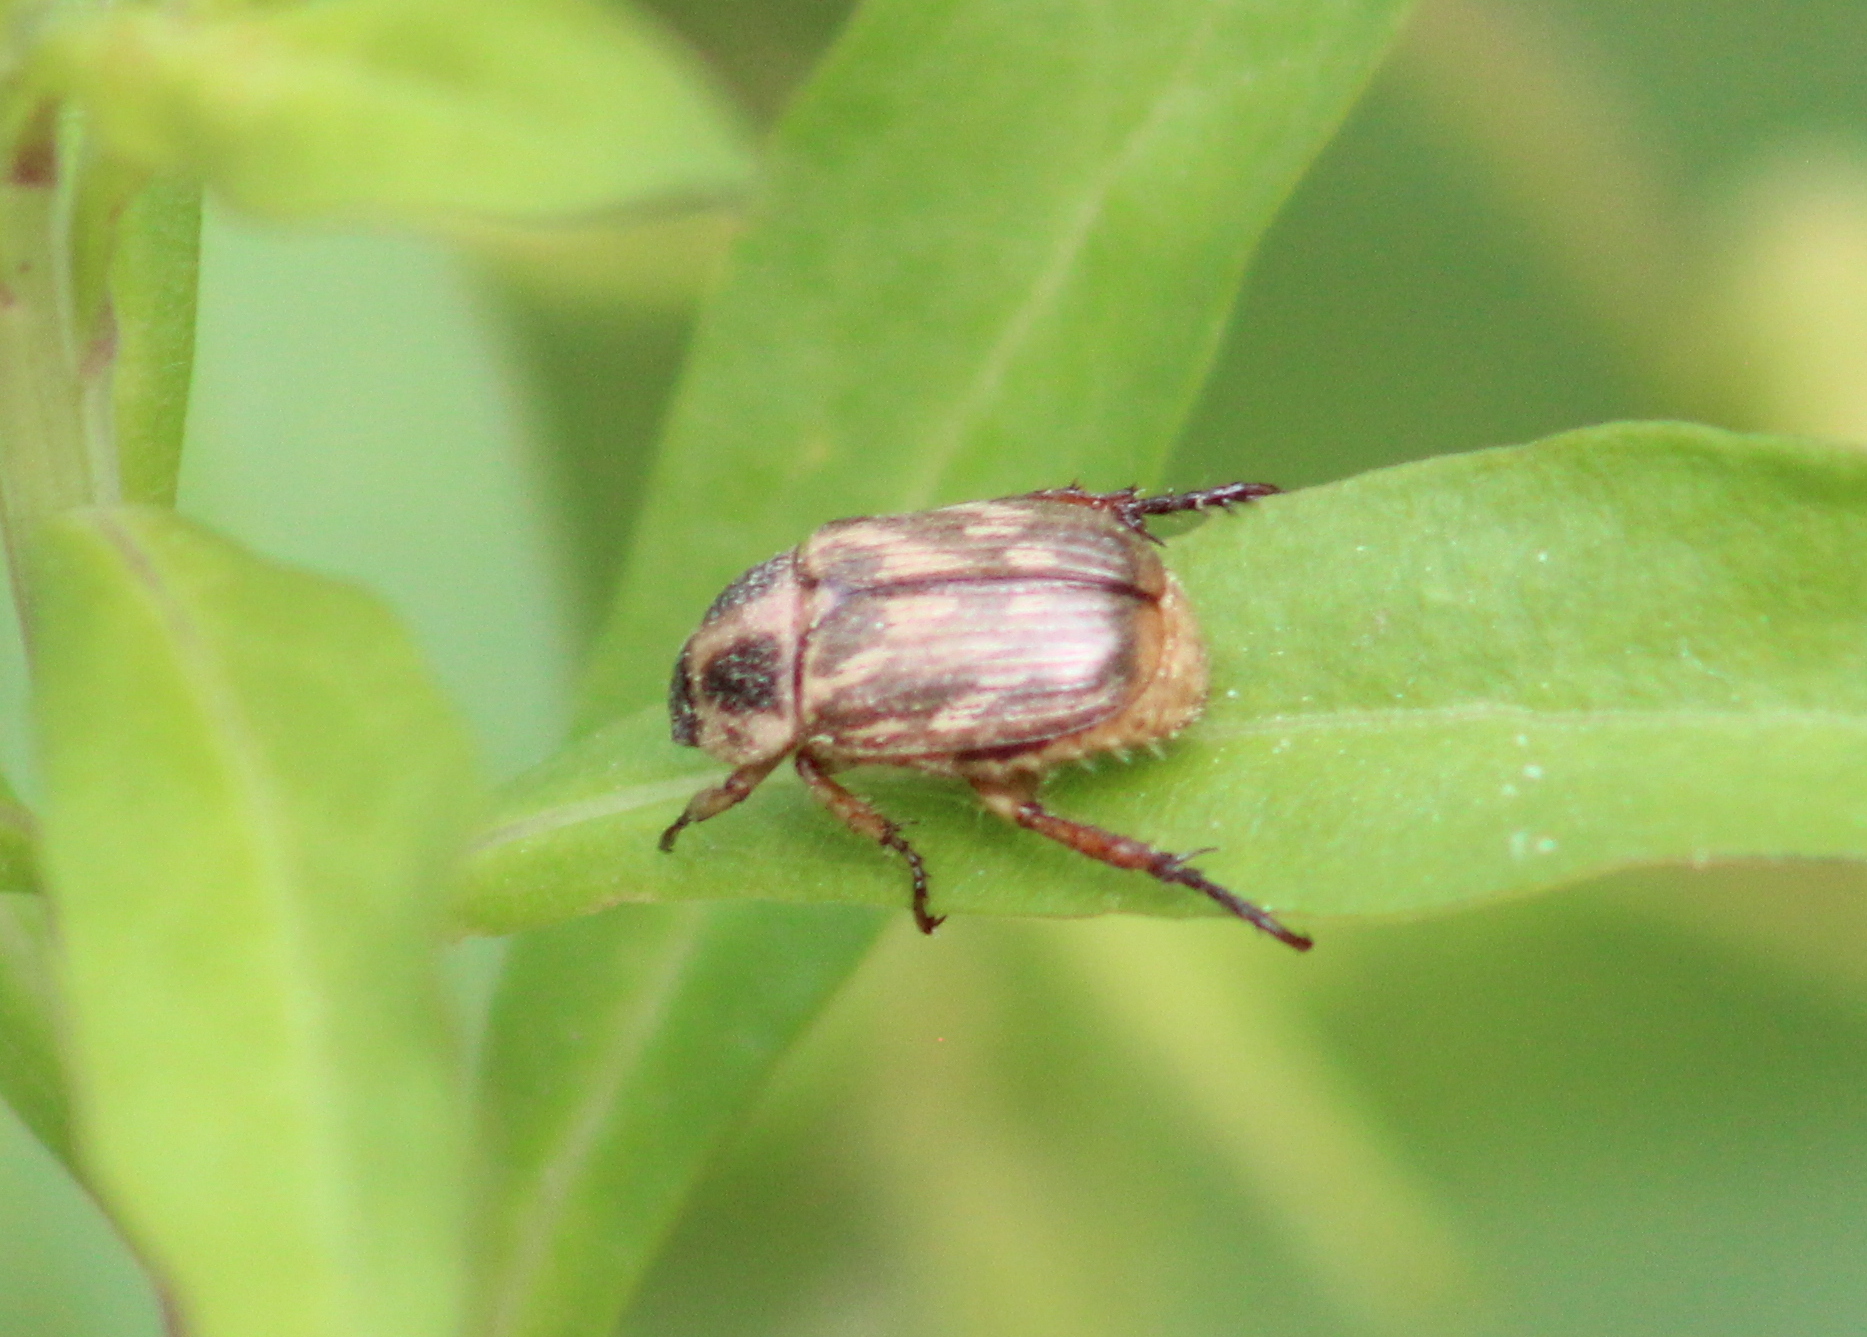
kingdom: Animalia
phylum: Arthropoda
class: Insecta
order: Coleoptera
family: Scarabaeidae
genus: Exomala
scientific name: Exomala orientalis
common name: Oriental beetle
